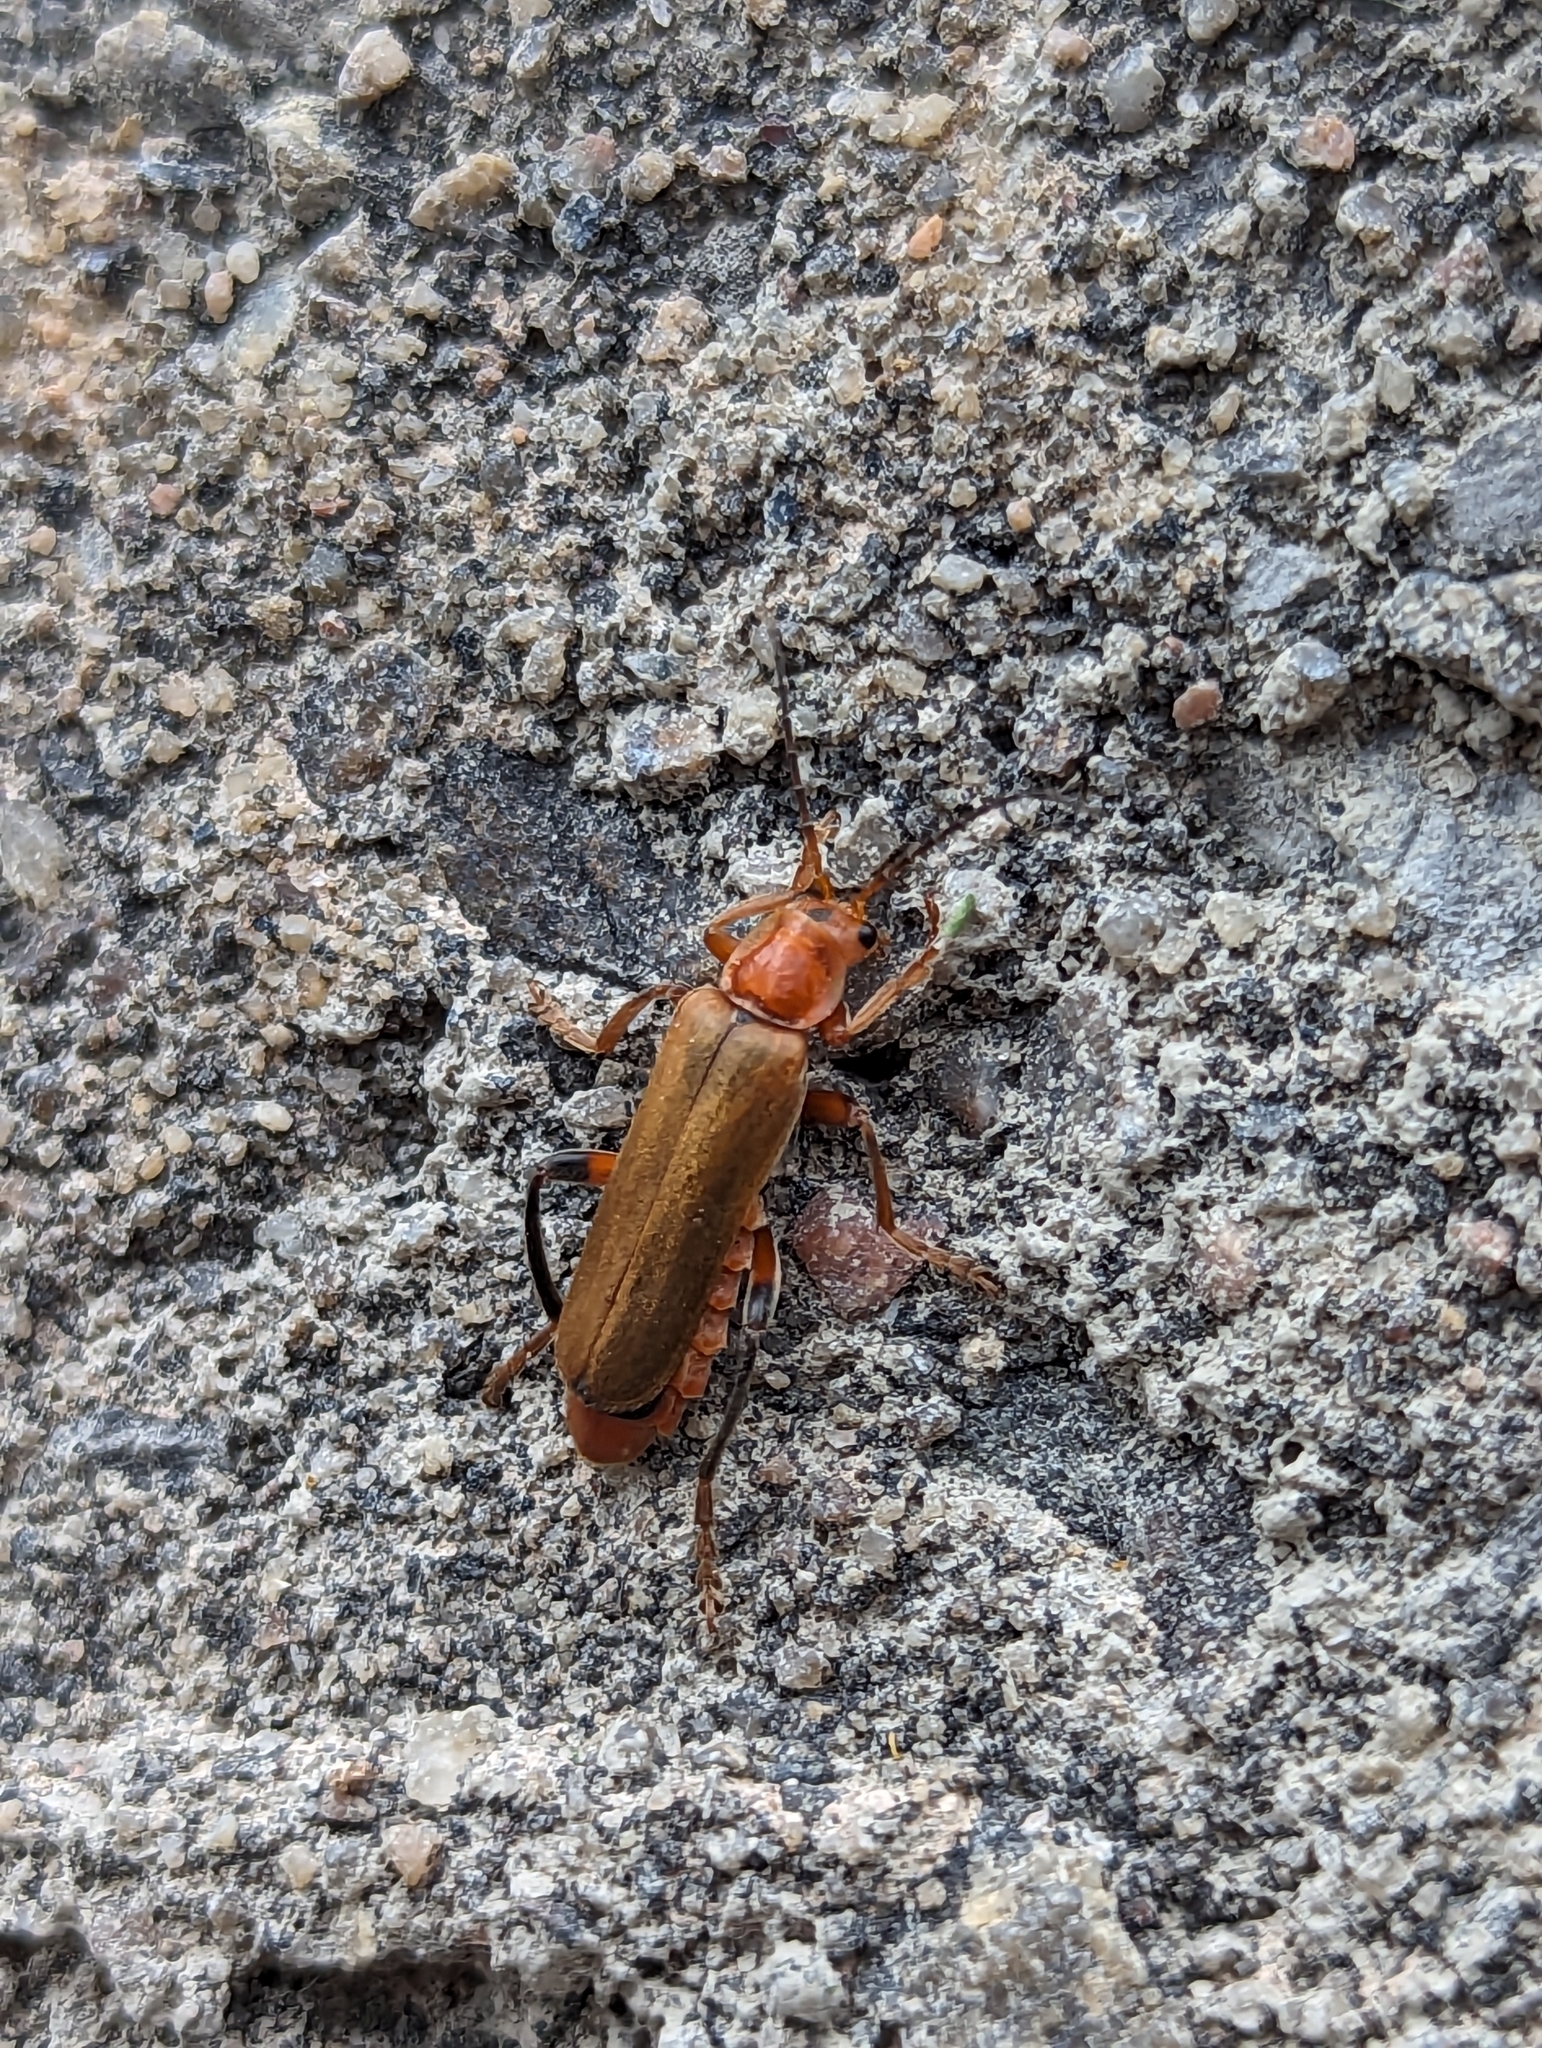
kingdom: Animalia
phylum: Arthropoda
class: Insecta
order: Coleoptera
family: Cantharidae
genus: Cantharis
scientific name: Cantharis livida
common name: Livid soldier beetle
